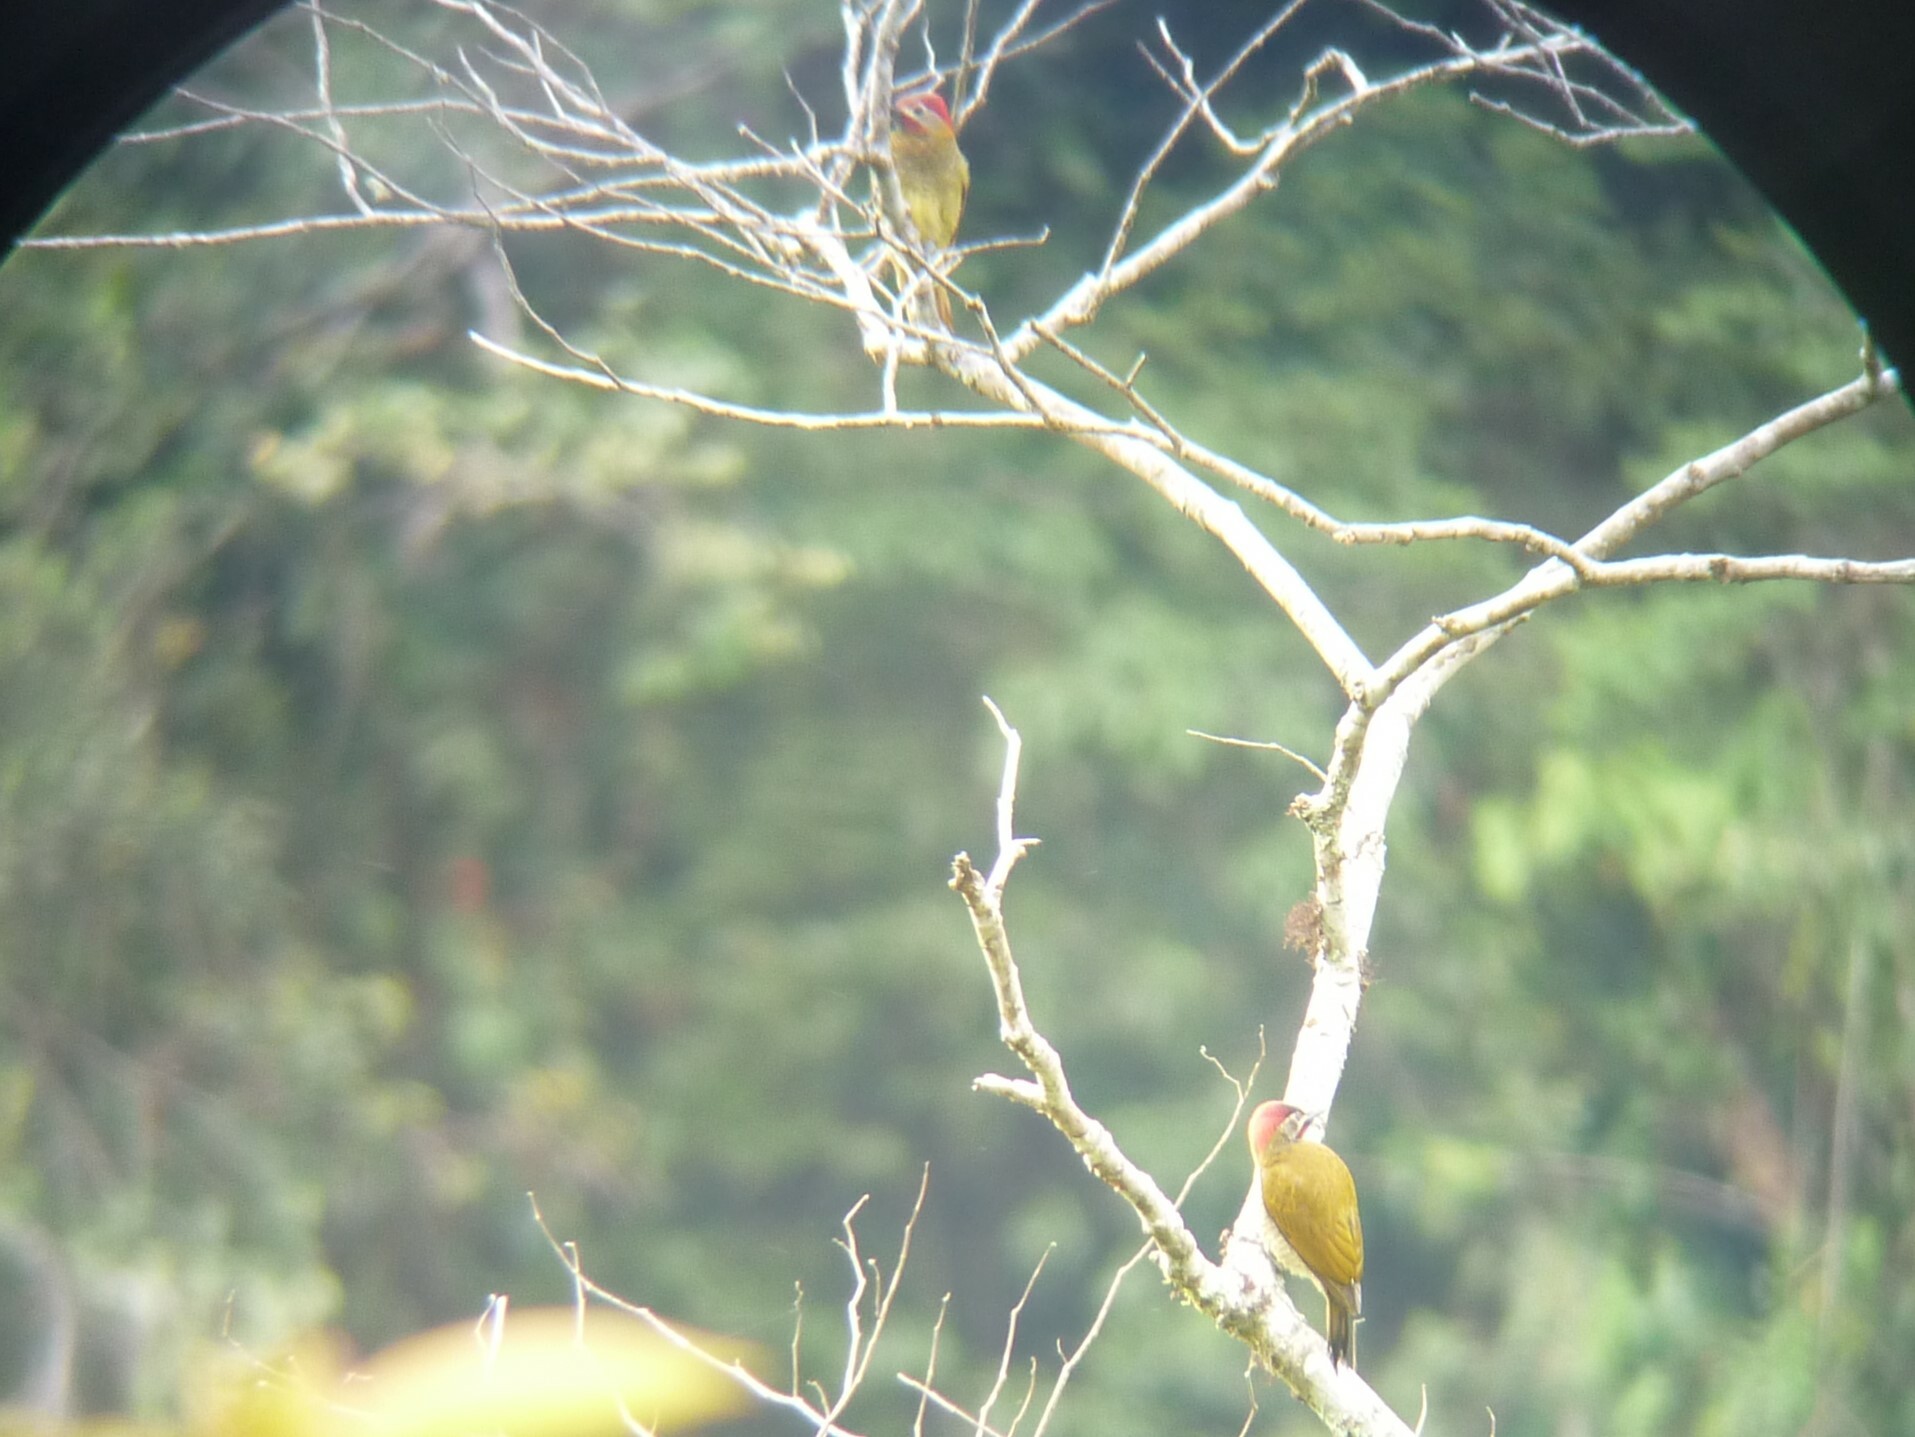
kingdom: Animalia
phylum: Chordata
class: Aves
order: Piciformes
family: Picidae
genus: Colaptes
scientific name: Colaptes rubiginosus
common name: Golden-olive woodpecker
